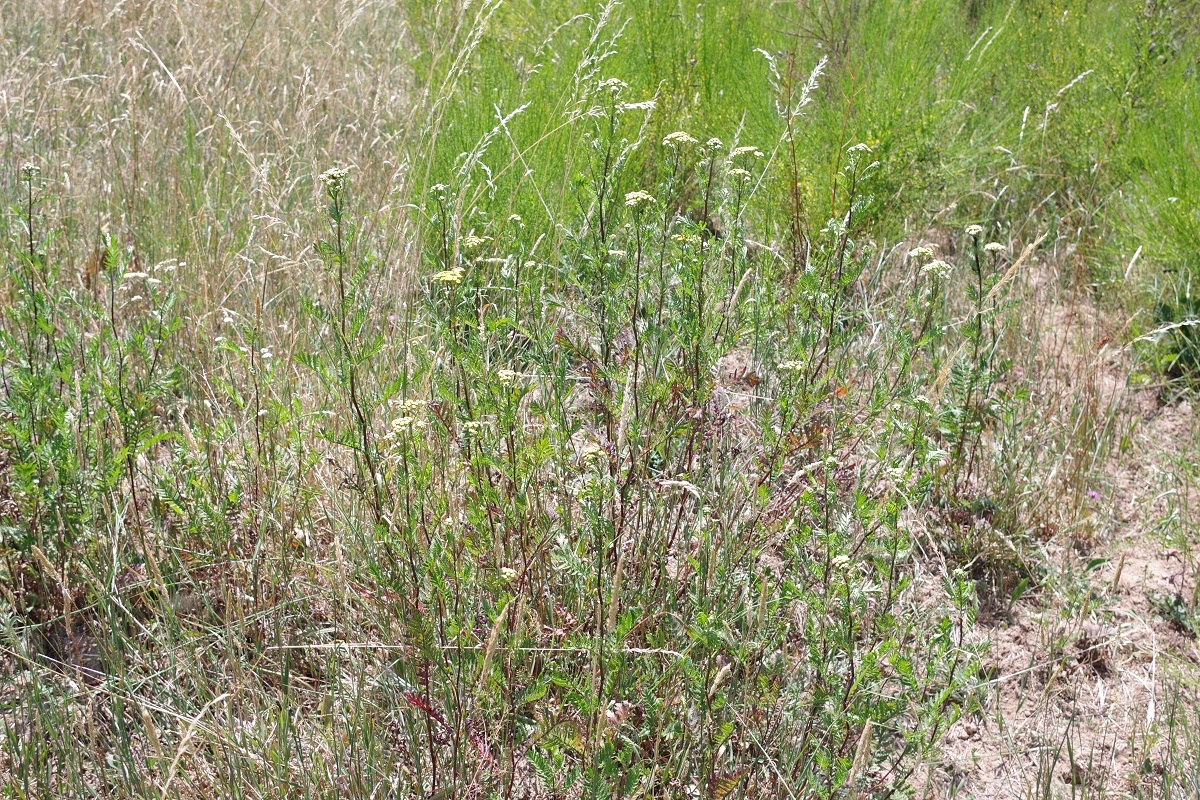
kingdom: Plantae
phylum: Tracheophyta
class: Magnoliopsida
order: Asterales
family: Asteraceae
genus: Tanacetum
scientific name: Tanacetum vulgare
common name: Common tansy
